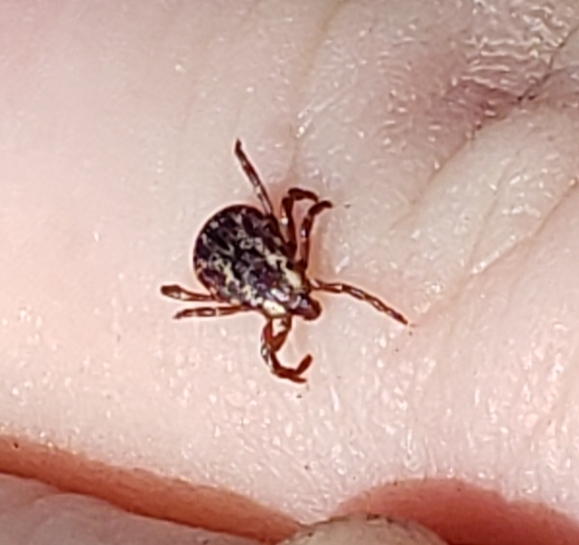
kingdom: Animalia
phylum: Arthropoda
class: Arachnida
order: Ixodida
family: Ixodidae
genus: Dermacentor
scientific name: Dermacentor variabilis
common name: American dog tick
